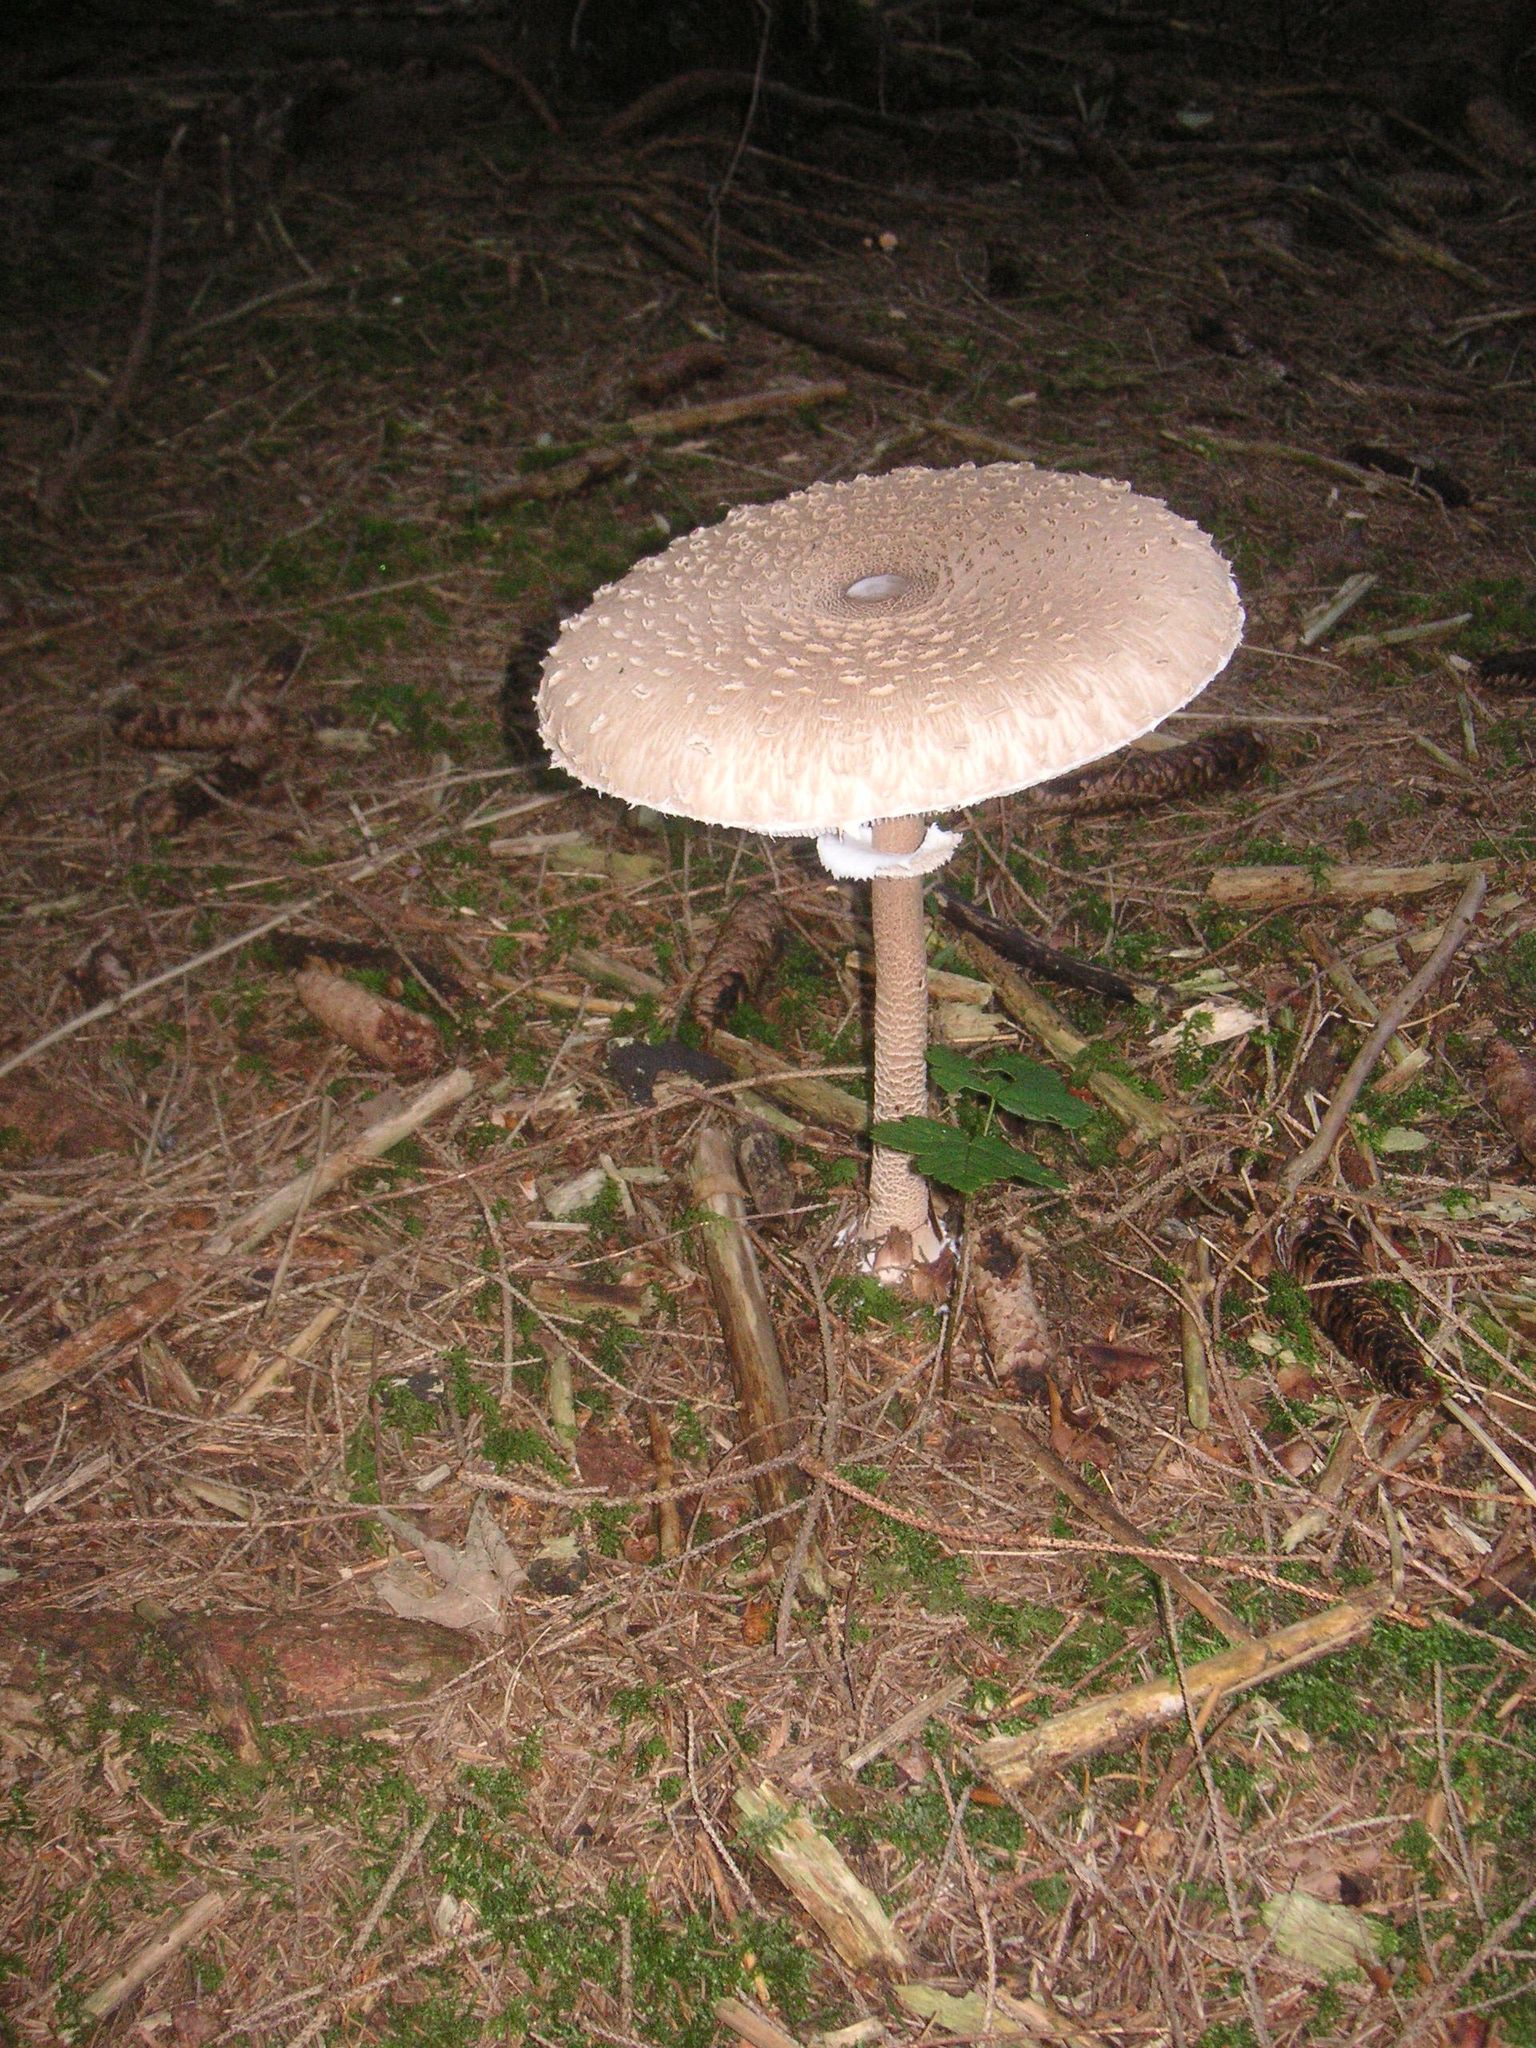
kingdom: Fungi
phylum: Basidiomycota
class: Agaricomycetes
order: Agaricales
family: Agaricaceae
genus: Macrolepiota
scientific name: Macrolepiota procera
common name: Parasol
